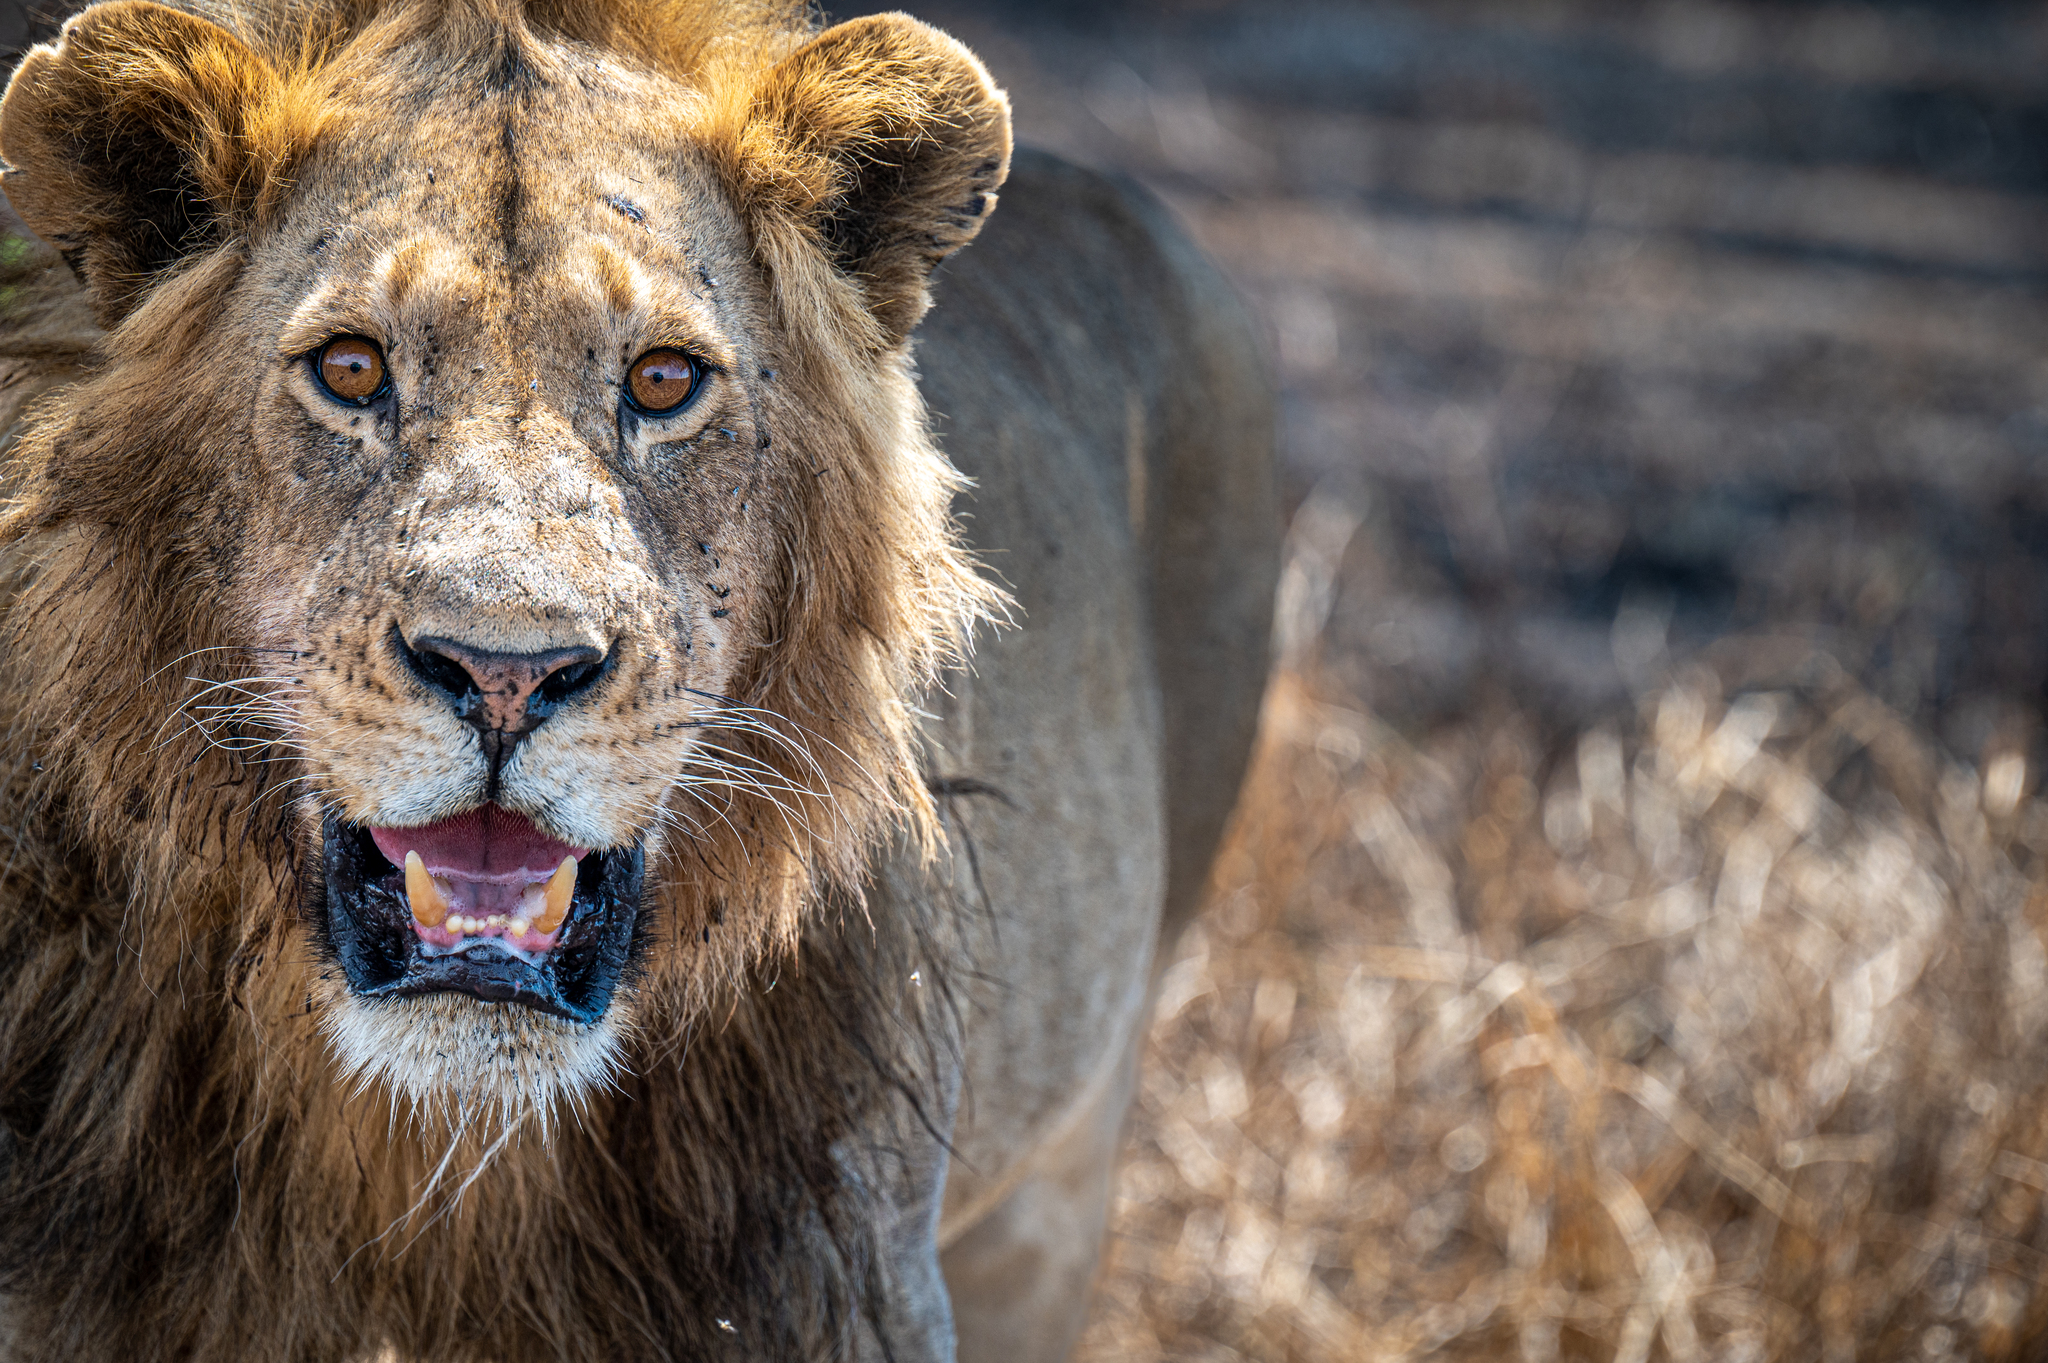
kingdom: Animalia
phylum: Chordata
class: Mammalia
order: Carnivora
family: Felidae
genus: Panthera
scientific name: Panthera leo
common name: Lion
